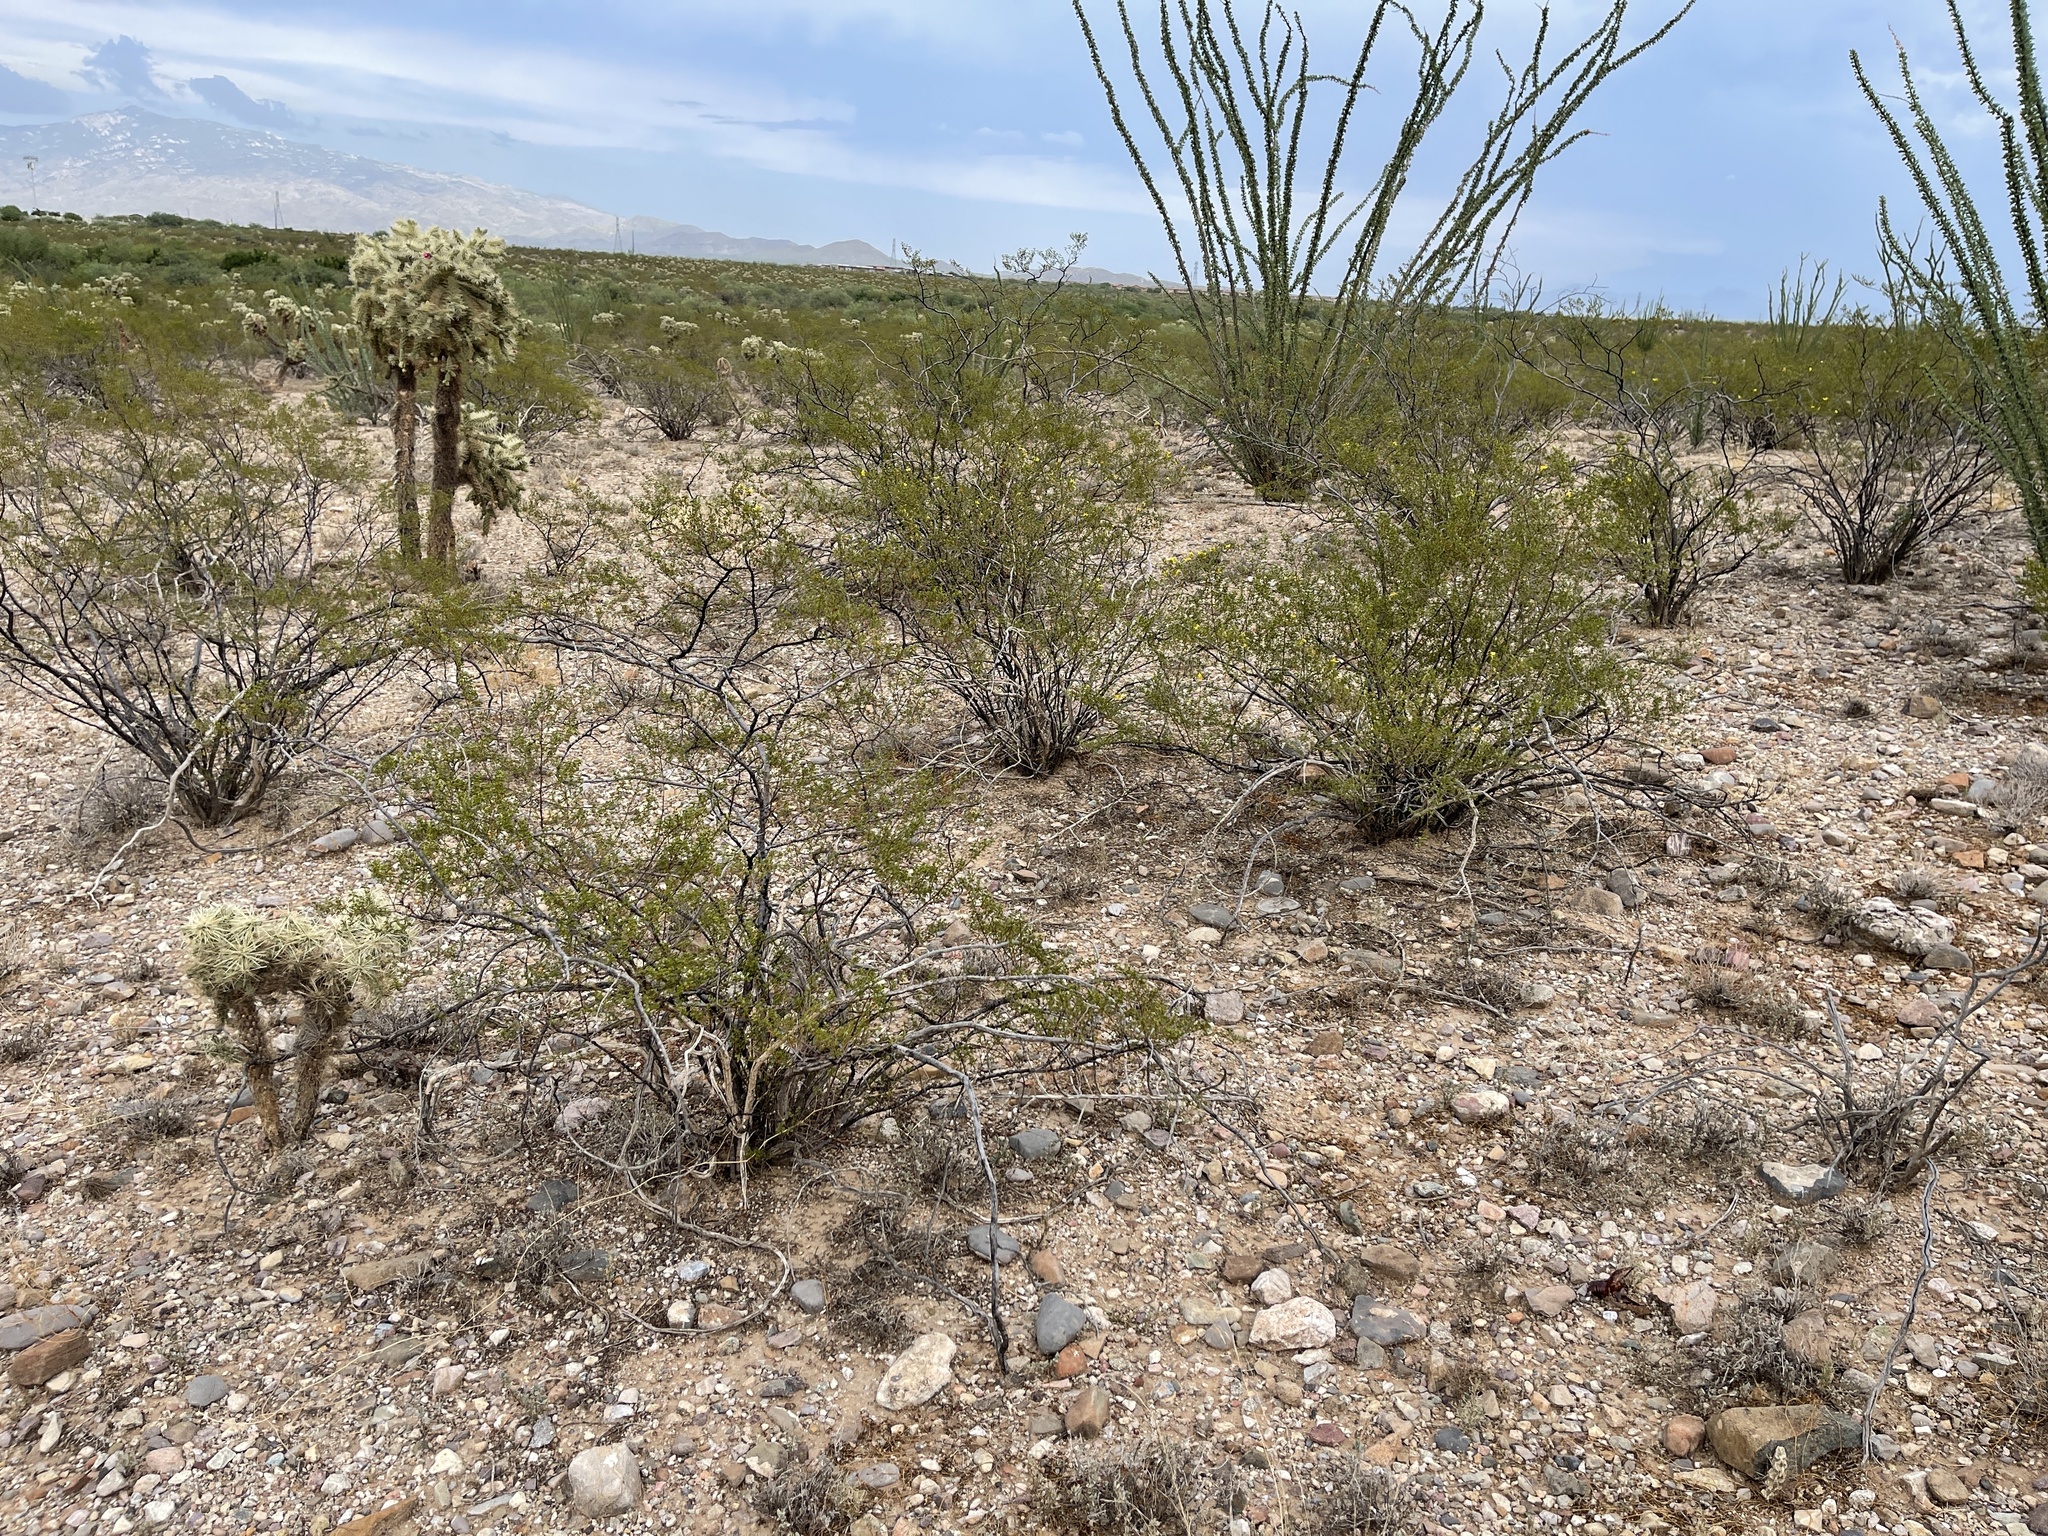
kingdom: Plantae
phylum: Tracheophyta
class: Magnoliopsida
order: Zygophyllales
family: Zygophyllaceae
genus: Larrea
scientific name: Larrea tridentata
